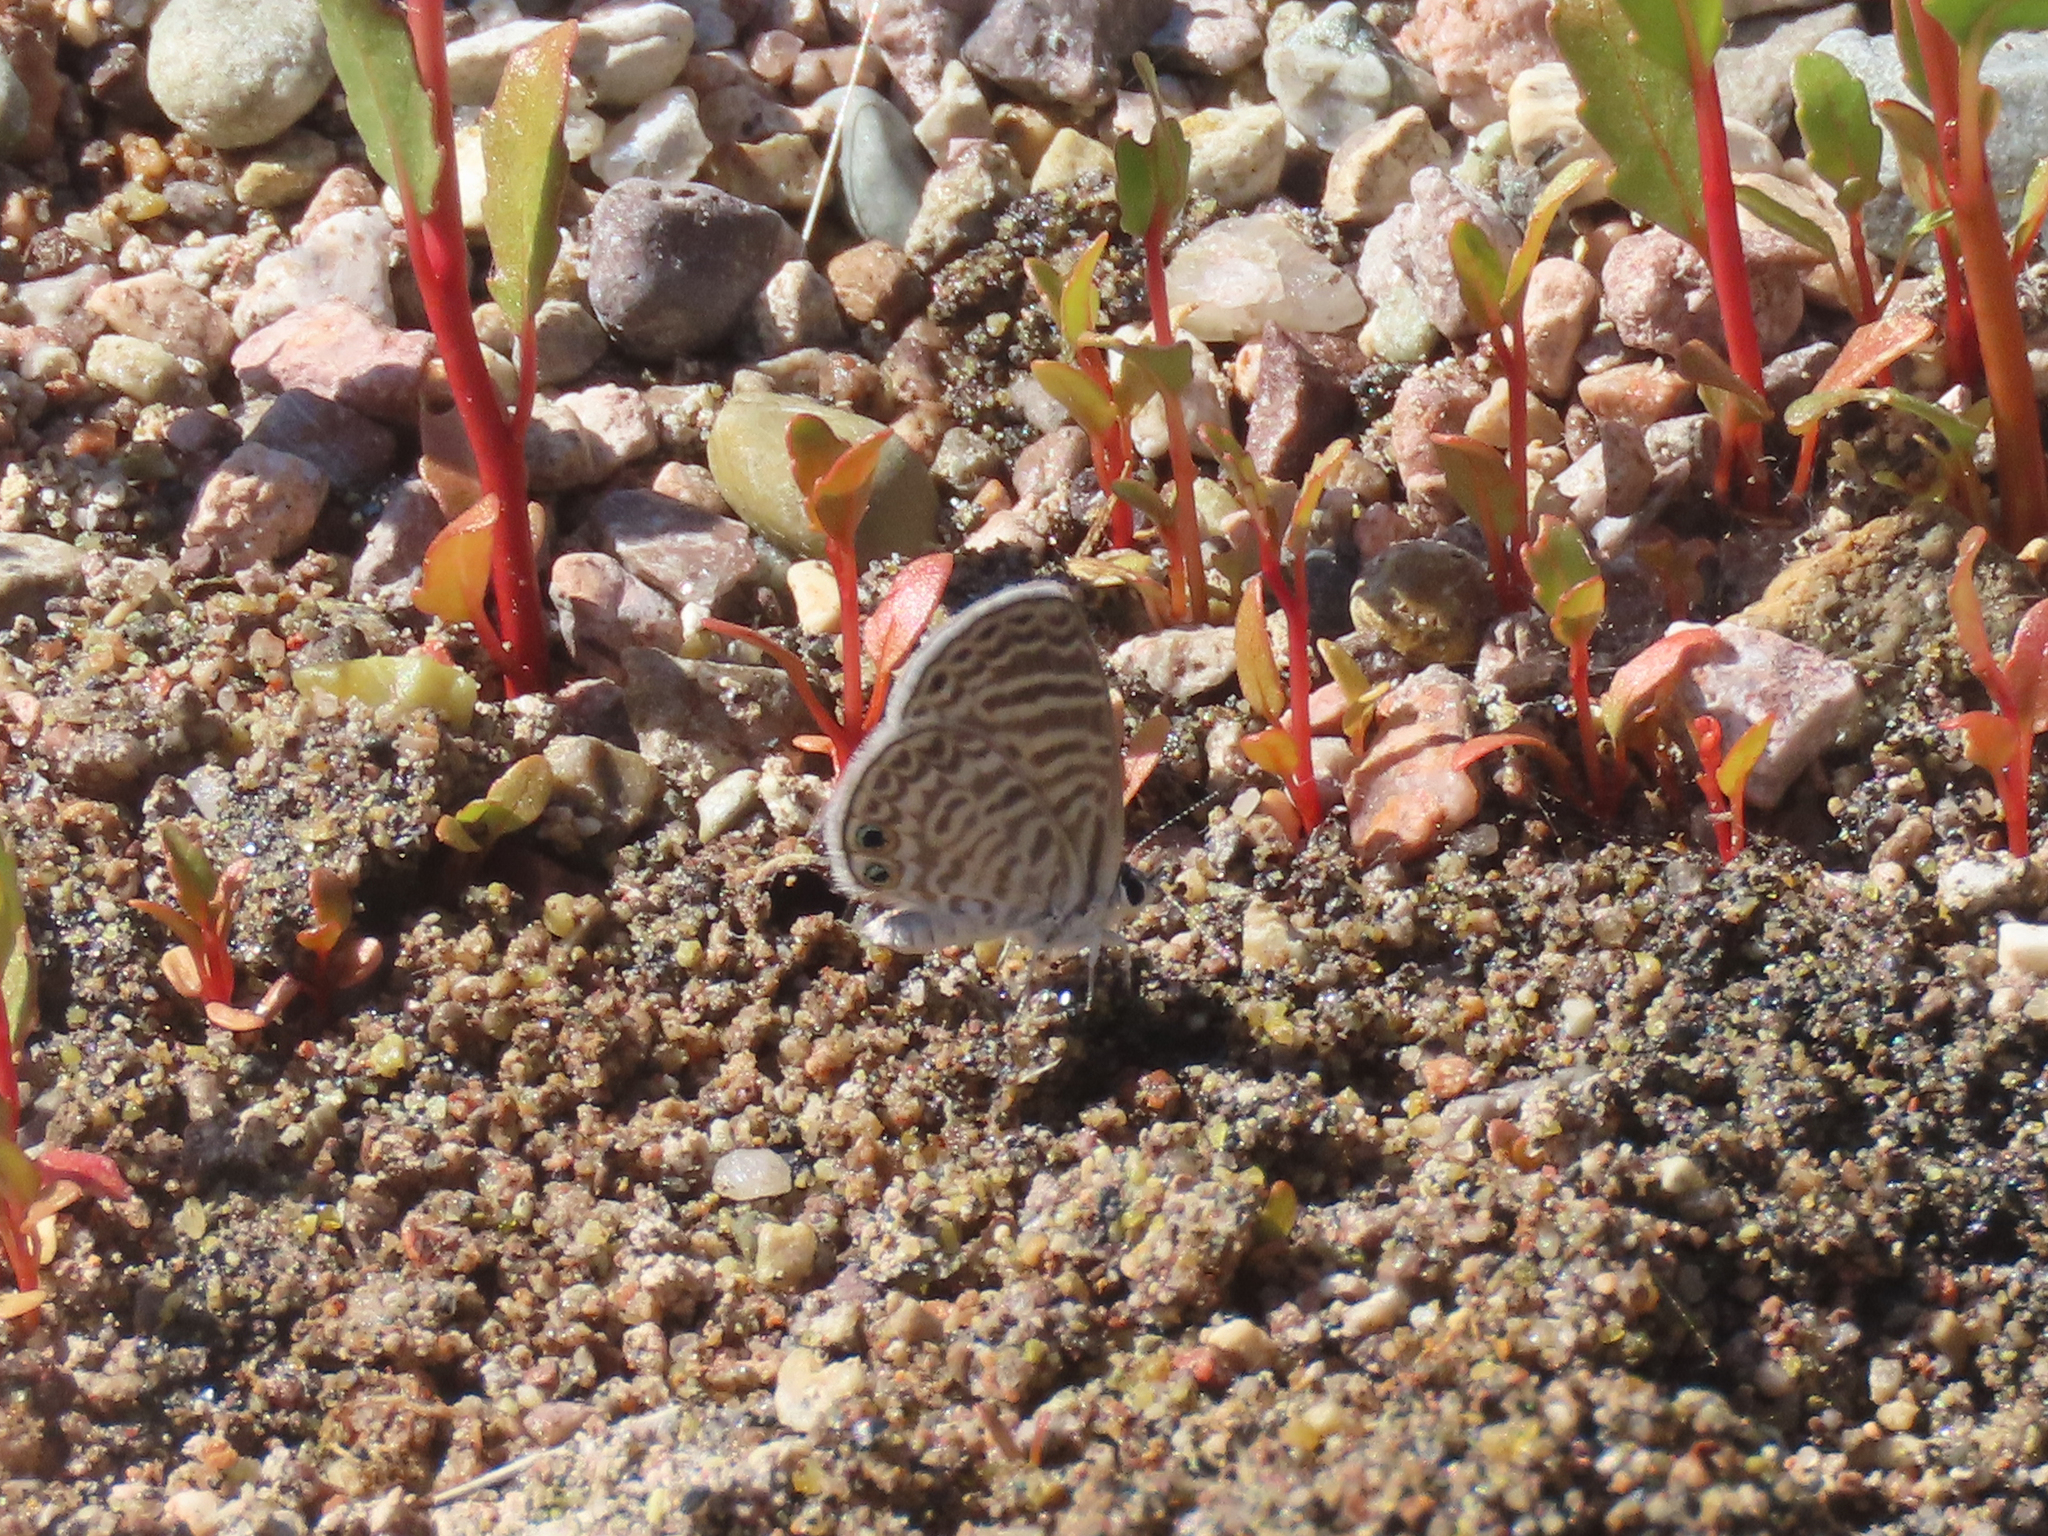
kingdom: Animalia
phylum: Arthropoda
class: Insecta
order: Lepidoptera
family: Lycaenidae
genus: Leptotes
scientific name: Leptotes marina
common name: Marine blue
